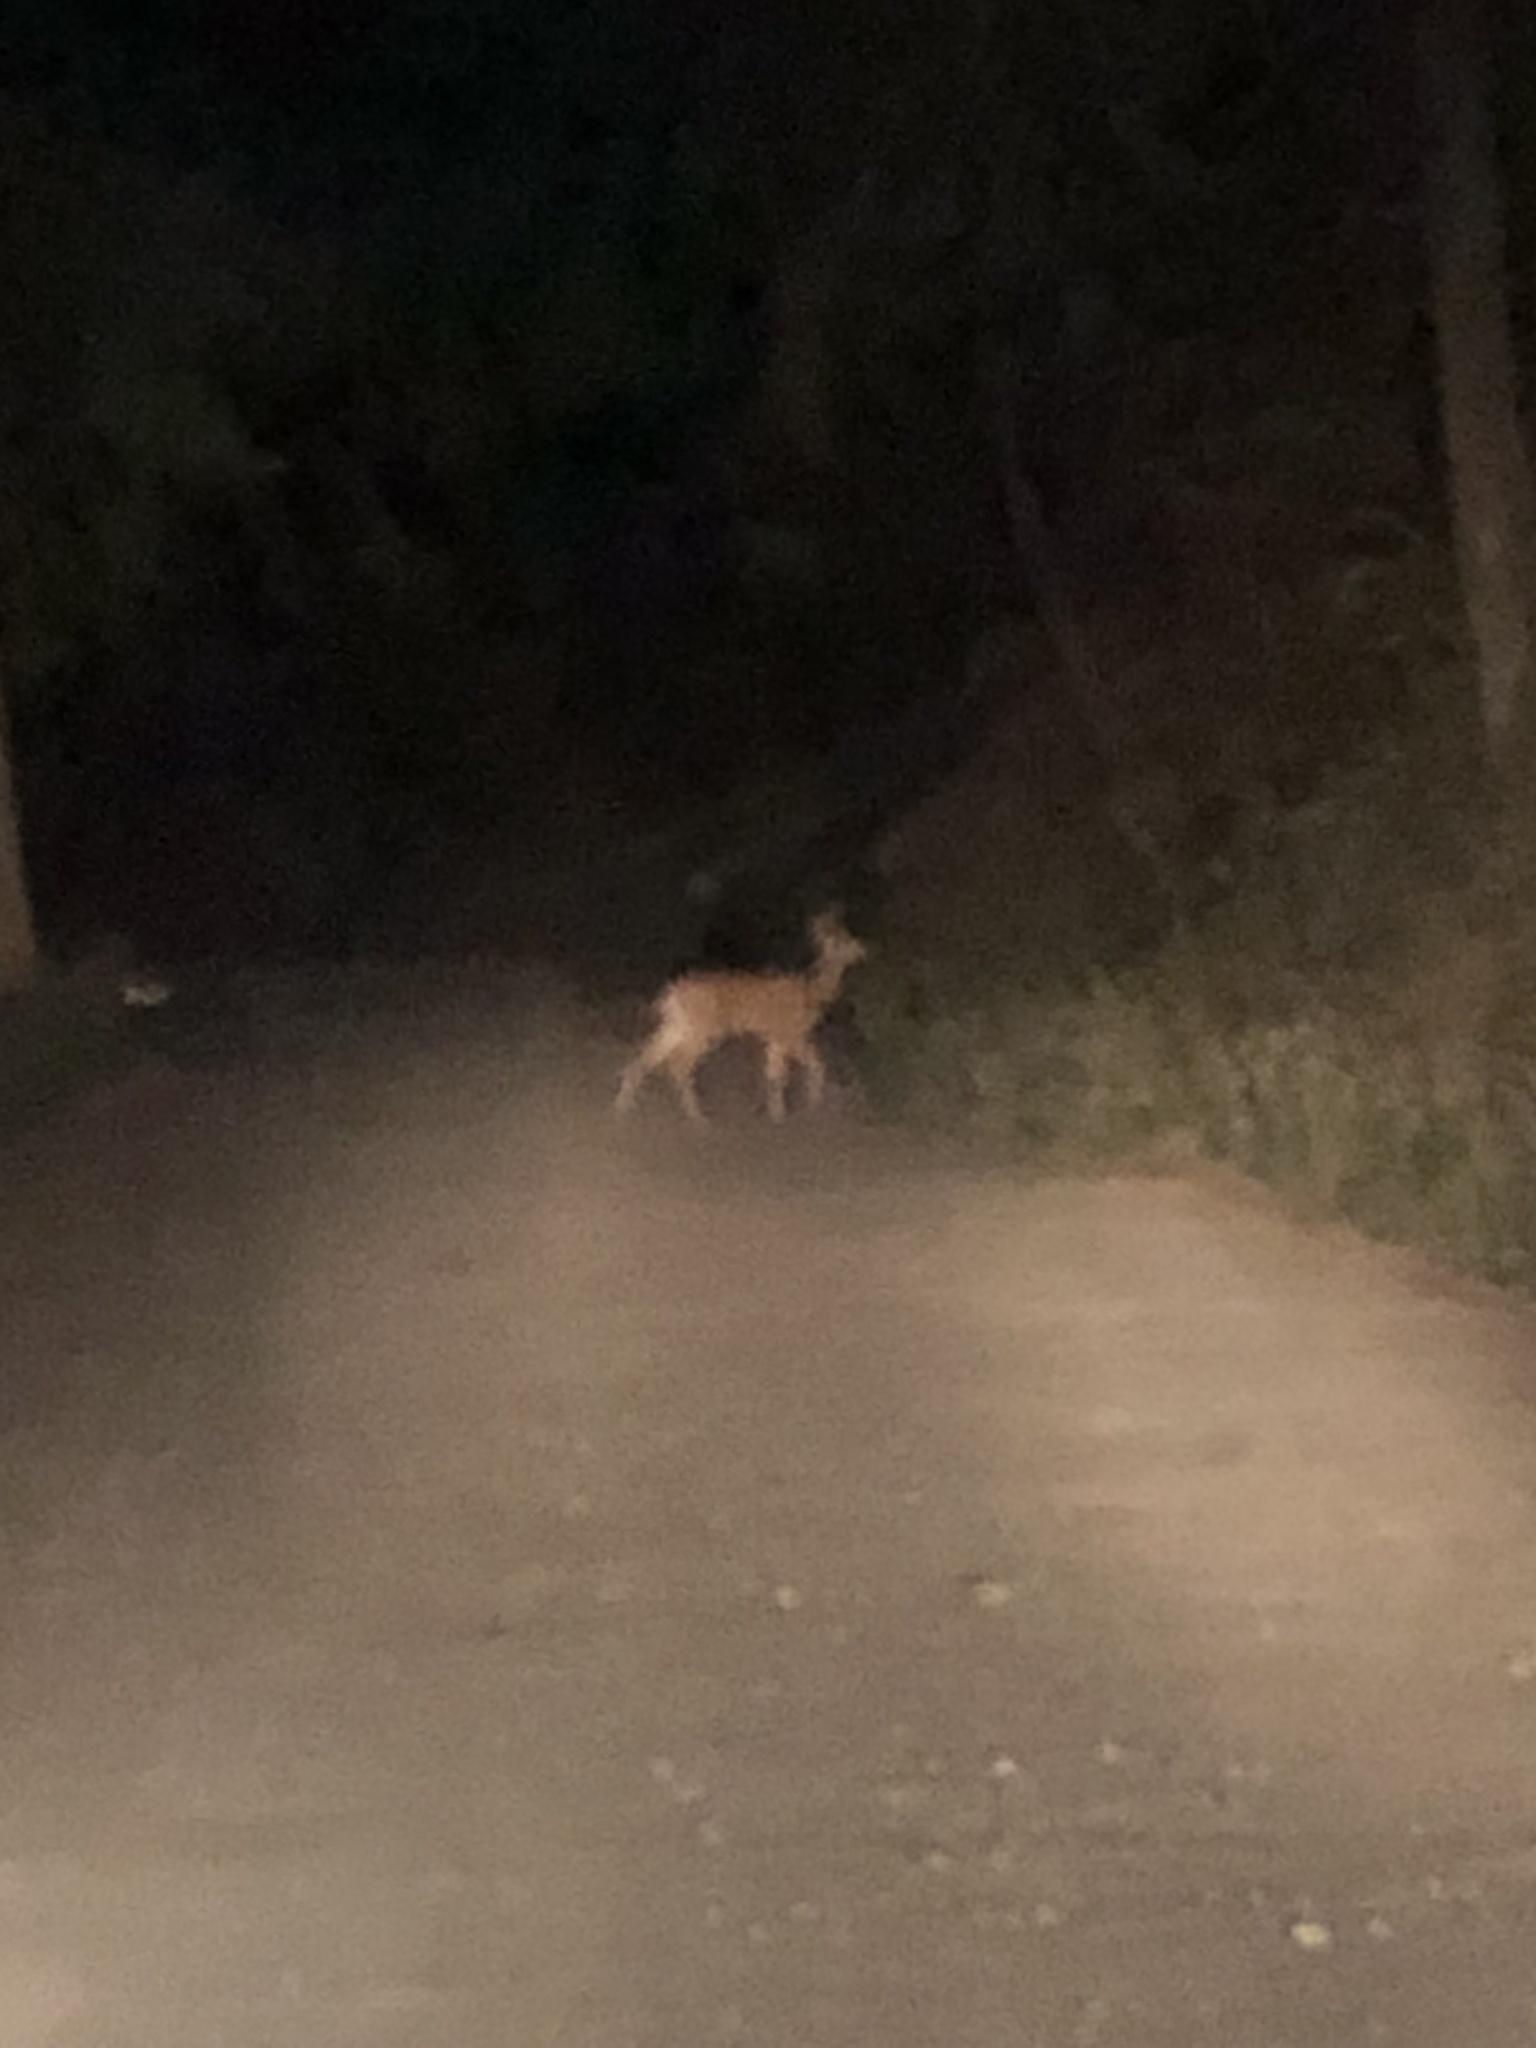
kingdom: Animalia
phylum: Chordata
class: Mammalia
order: Artiodactyla
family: Cervidae
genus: Odocoileus
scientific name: Odocoileus hemionus
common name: Mule deer
